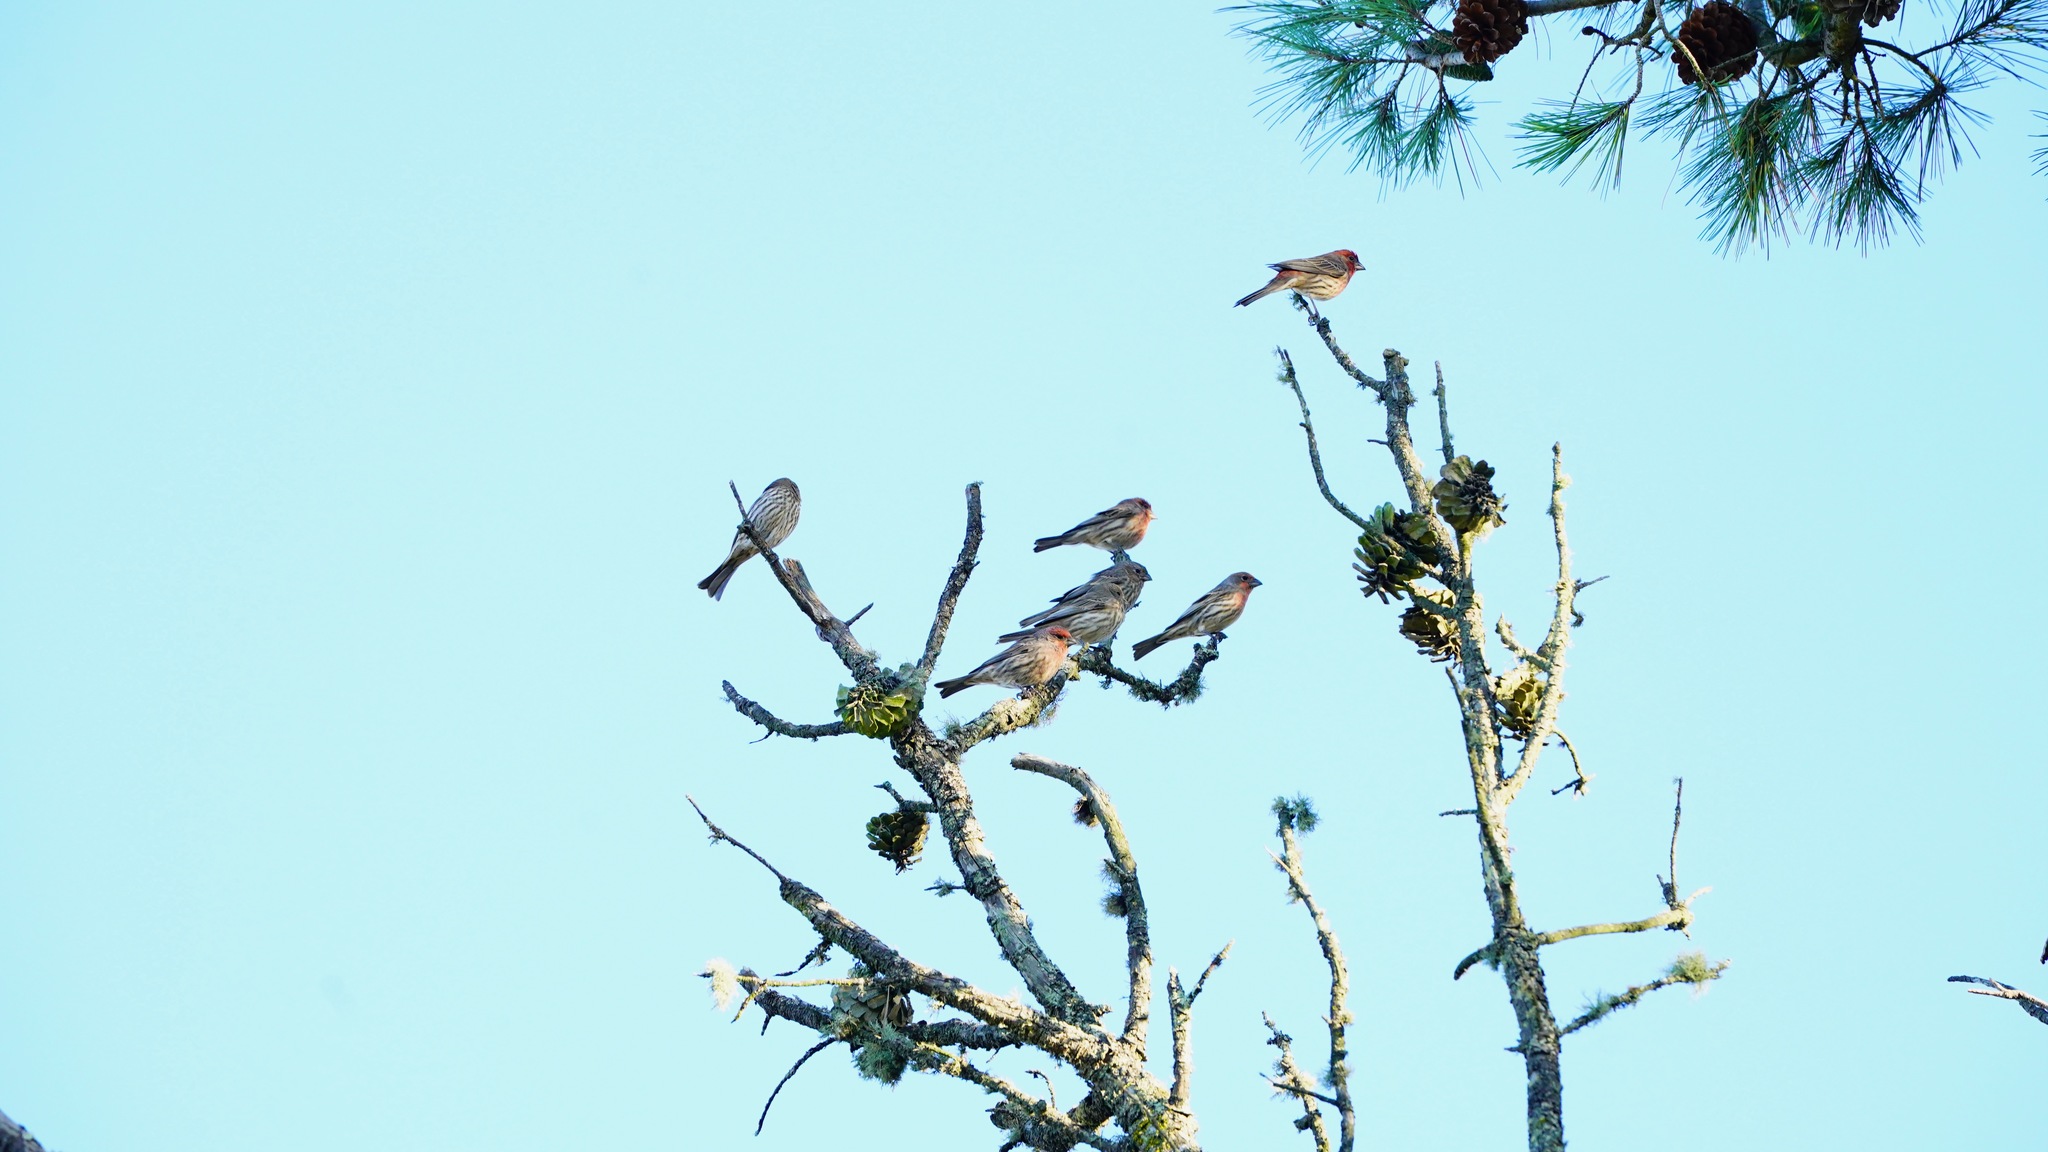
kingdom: Animalia
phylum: Chordata
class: Aves
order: Passeriformes
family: Fringillidae
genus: Haemorhous
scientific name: Haemorhous mexicanus
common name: House finch
